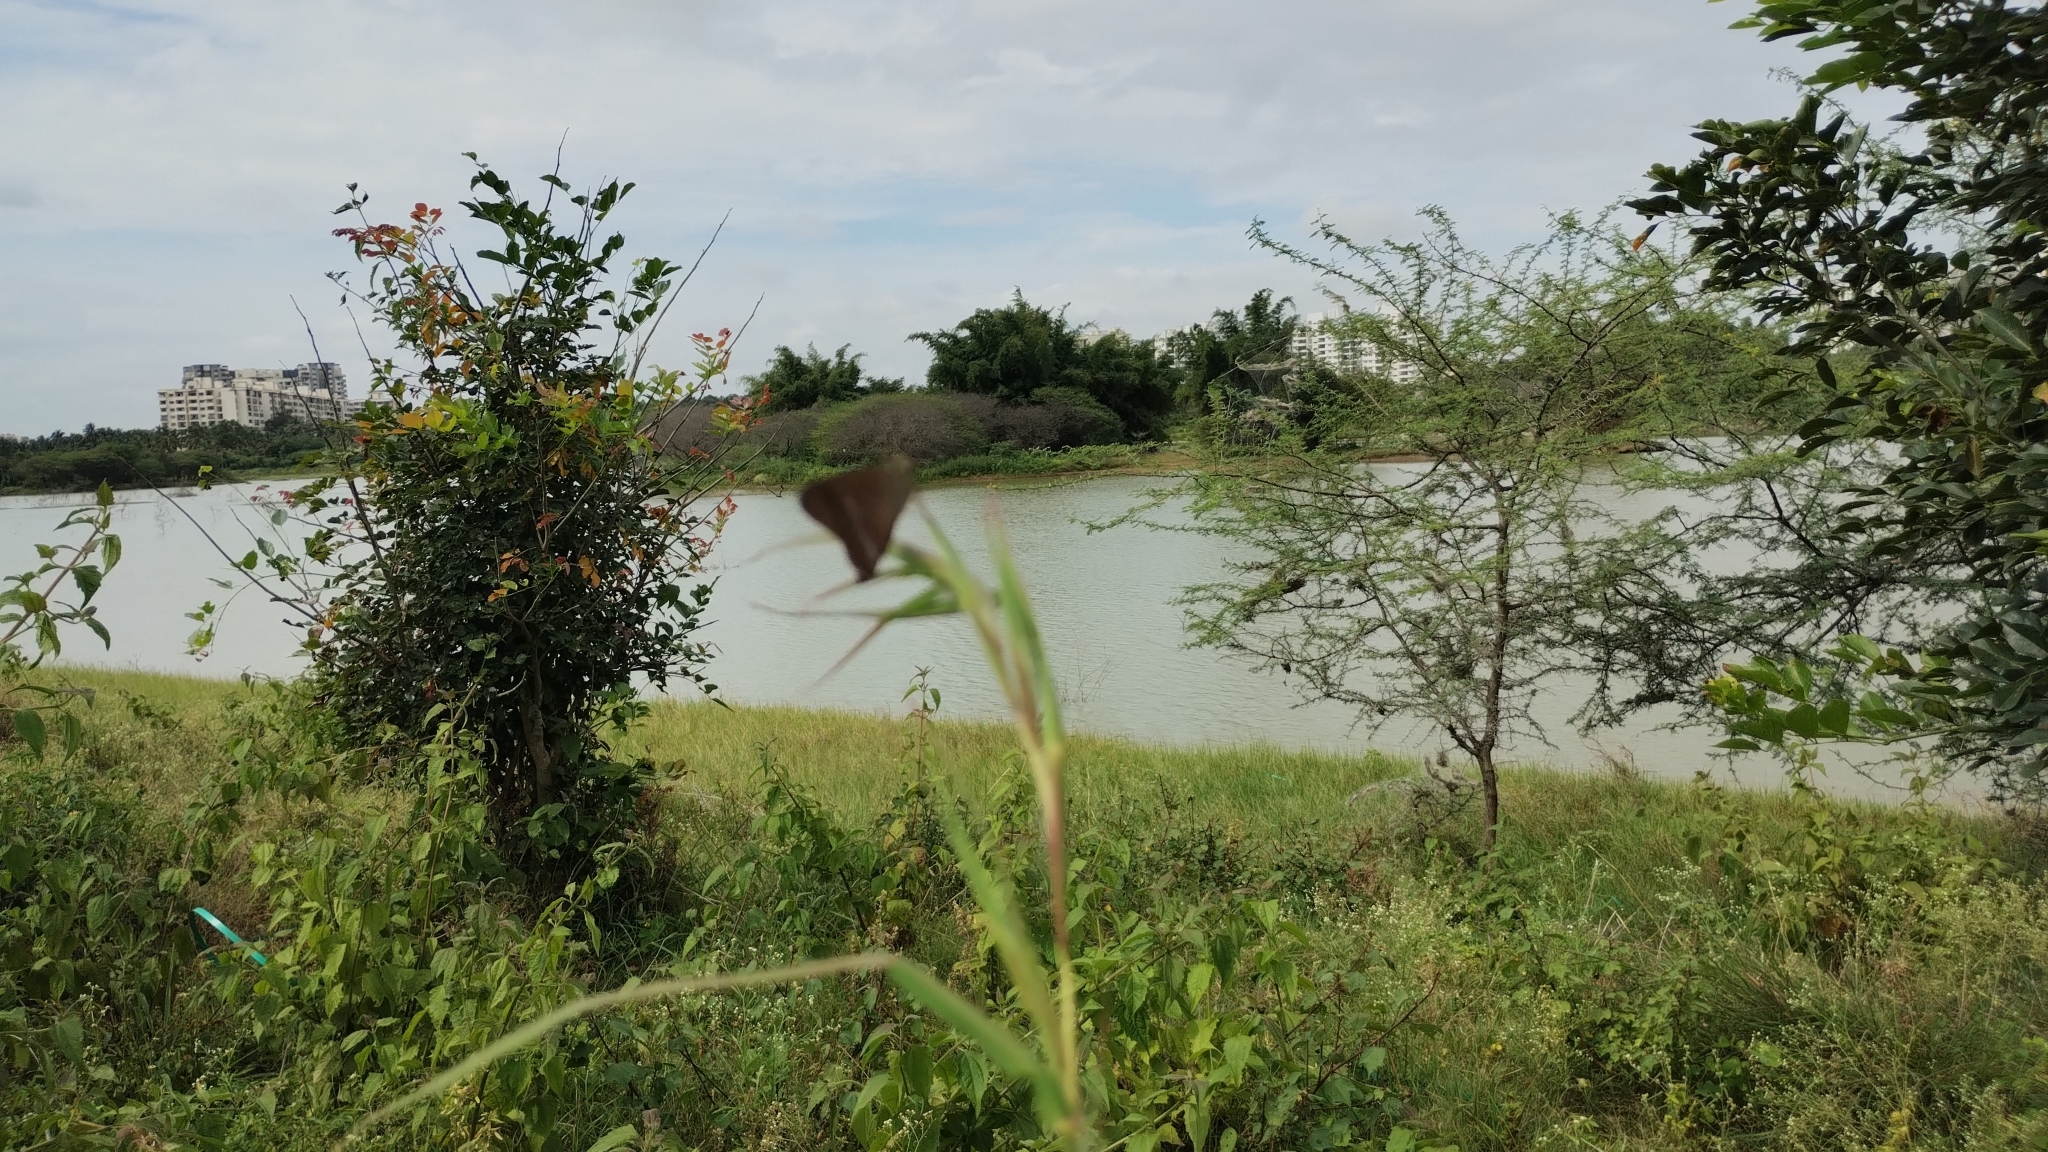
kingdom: Animalia
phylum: Arthropoda
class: Insecta
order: Lepidoptera
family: Hesperiidae
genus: Hasora
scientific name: Hasora chromus
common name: Common banded awl
